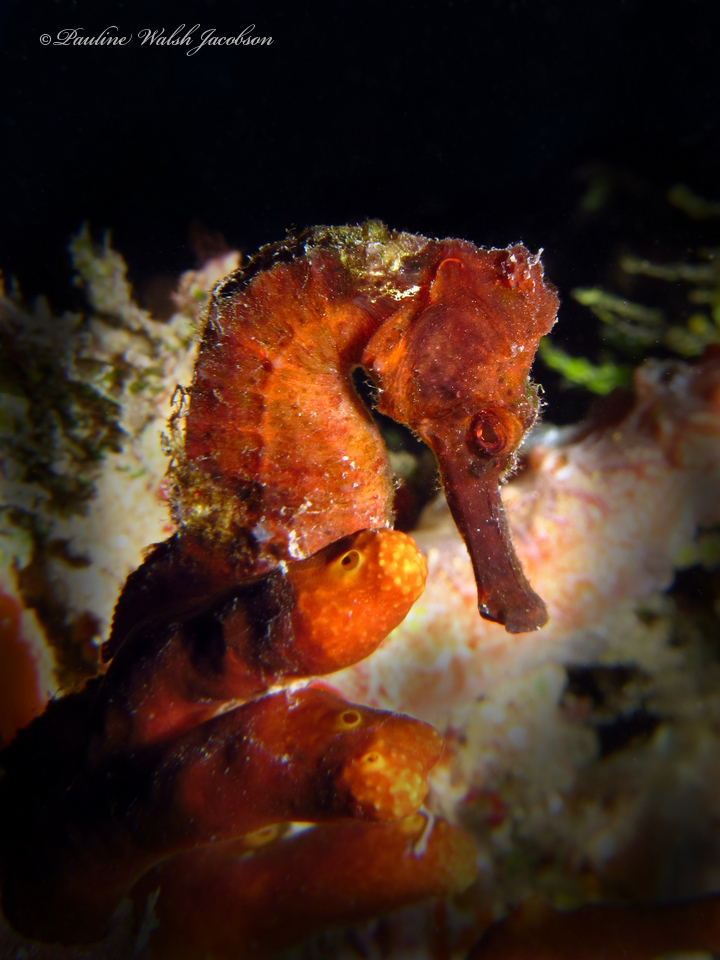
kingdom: Animalia
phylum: Chordata
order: Syngnathiformes
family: Syngnathidae
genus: Hippocampus
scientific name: Hippocampus reidi
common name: Slender seahorse
